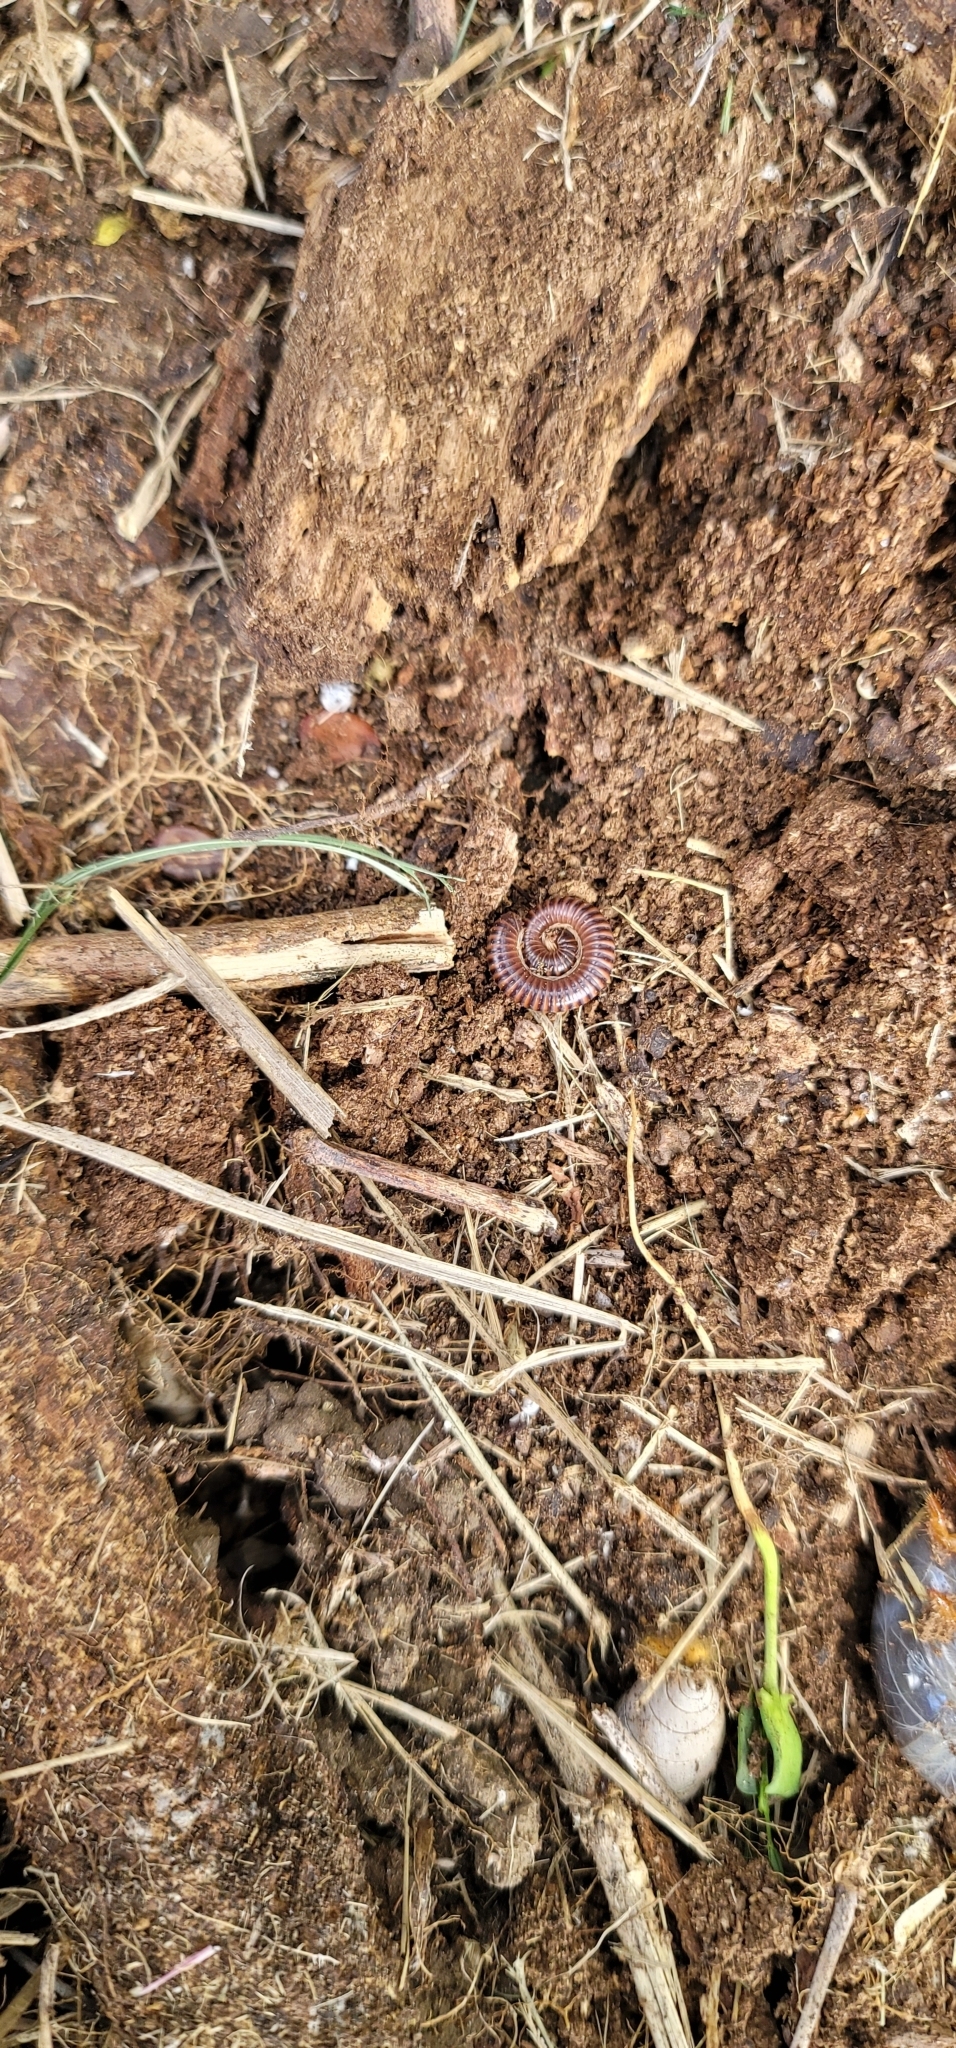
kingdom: Animalia
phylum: Arthropoda
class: Diplopoda
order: Spirobolida
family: Pachybolidae
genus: Leptogoniulus
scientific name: Leptogoniulus sorornus
